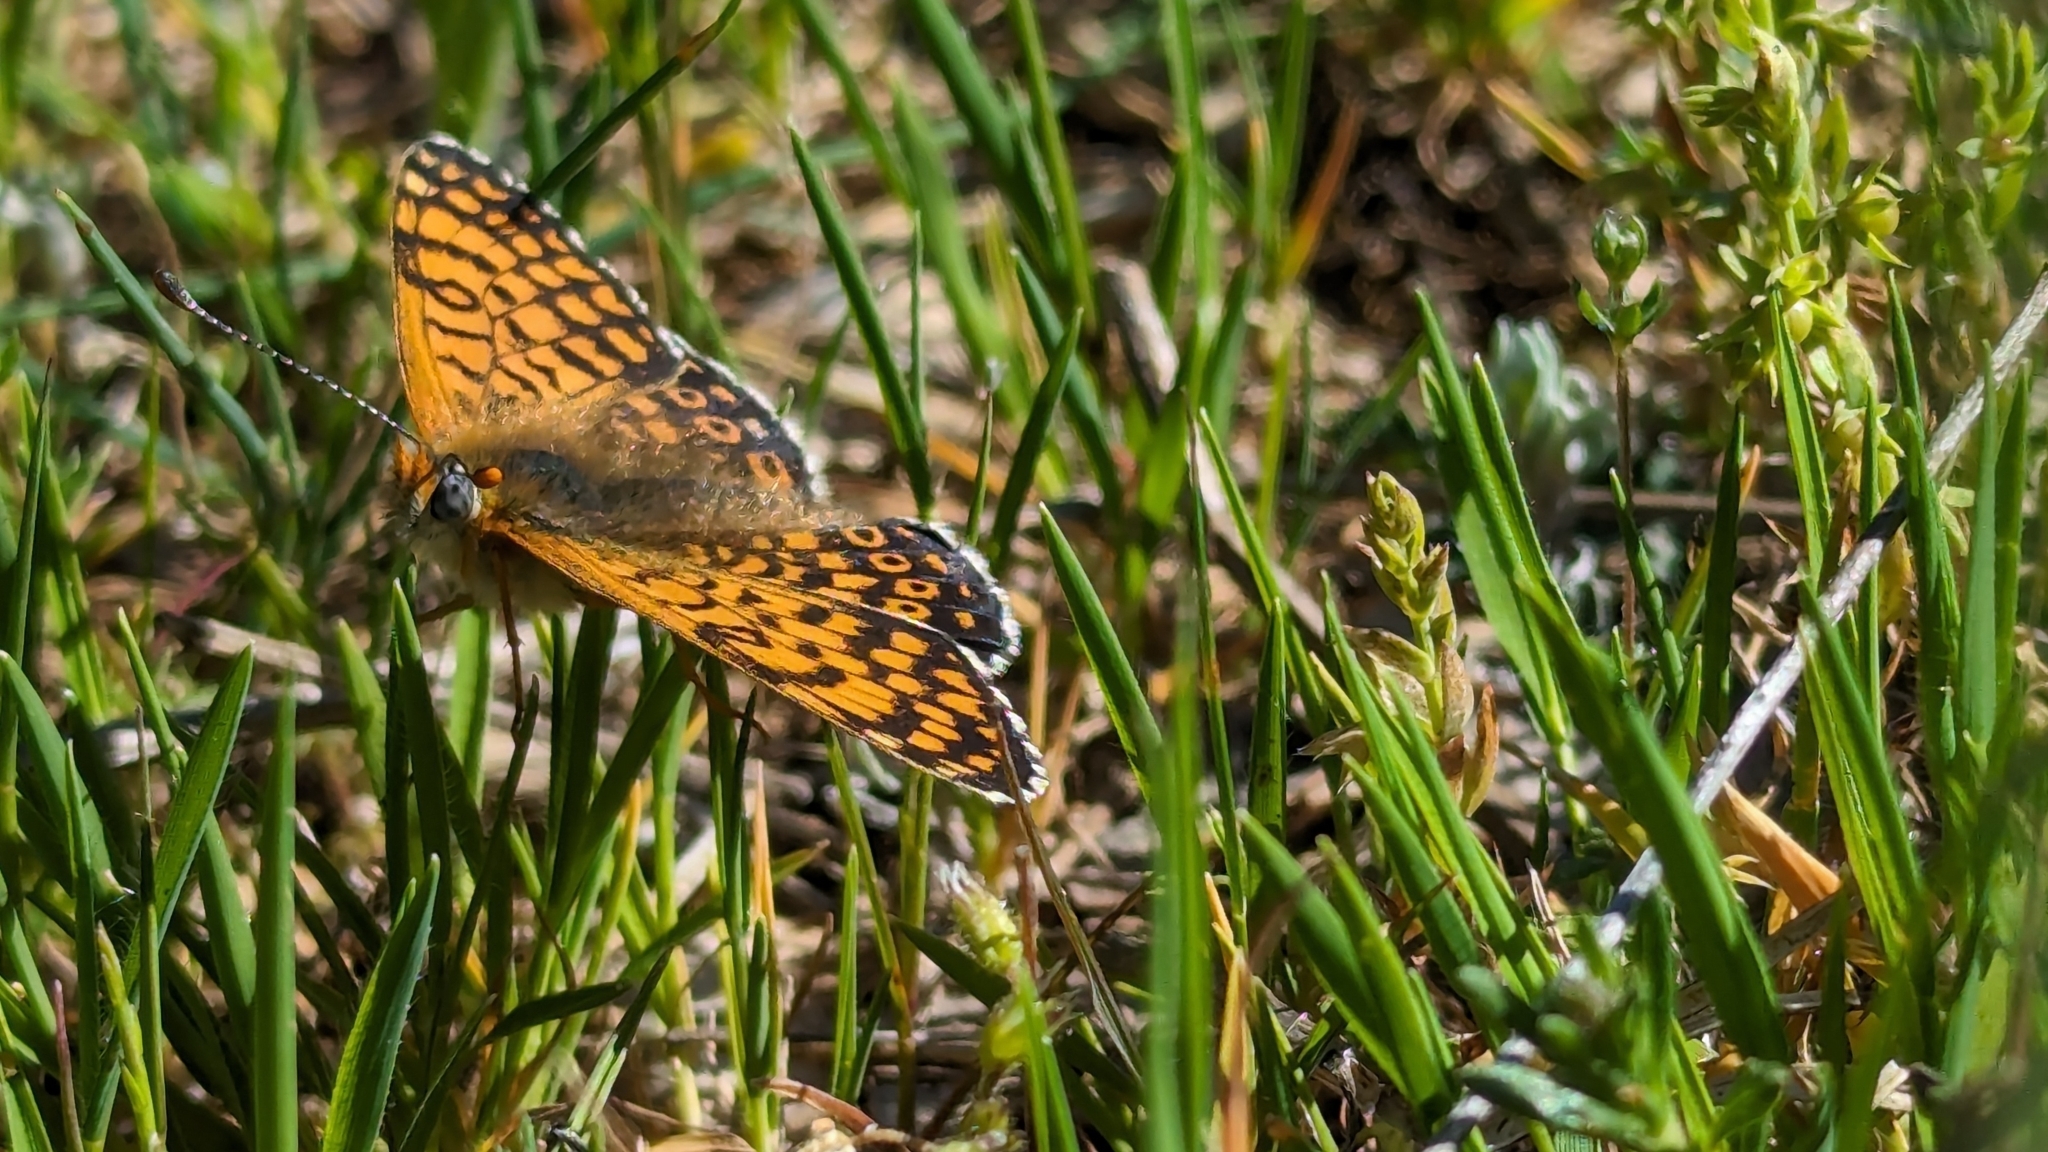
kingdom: Animalia
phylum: Arthropoda
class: Insecta
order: Lepidoptera
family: Nymphalidae
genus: Melitaea
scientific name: Melitaea cinxia
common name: Glanville fritillary
